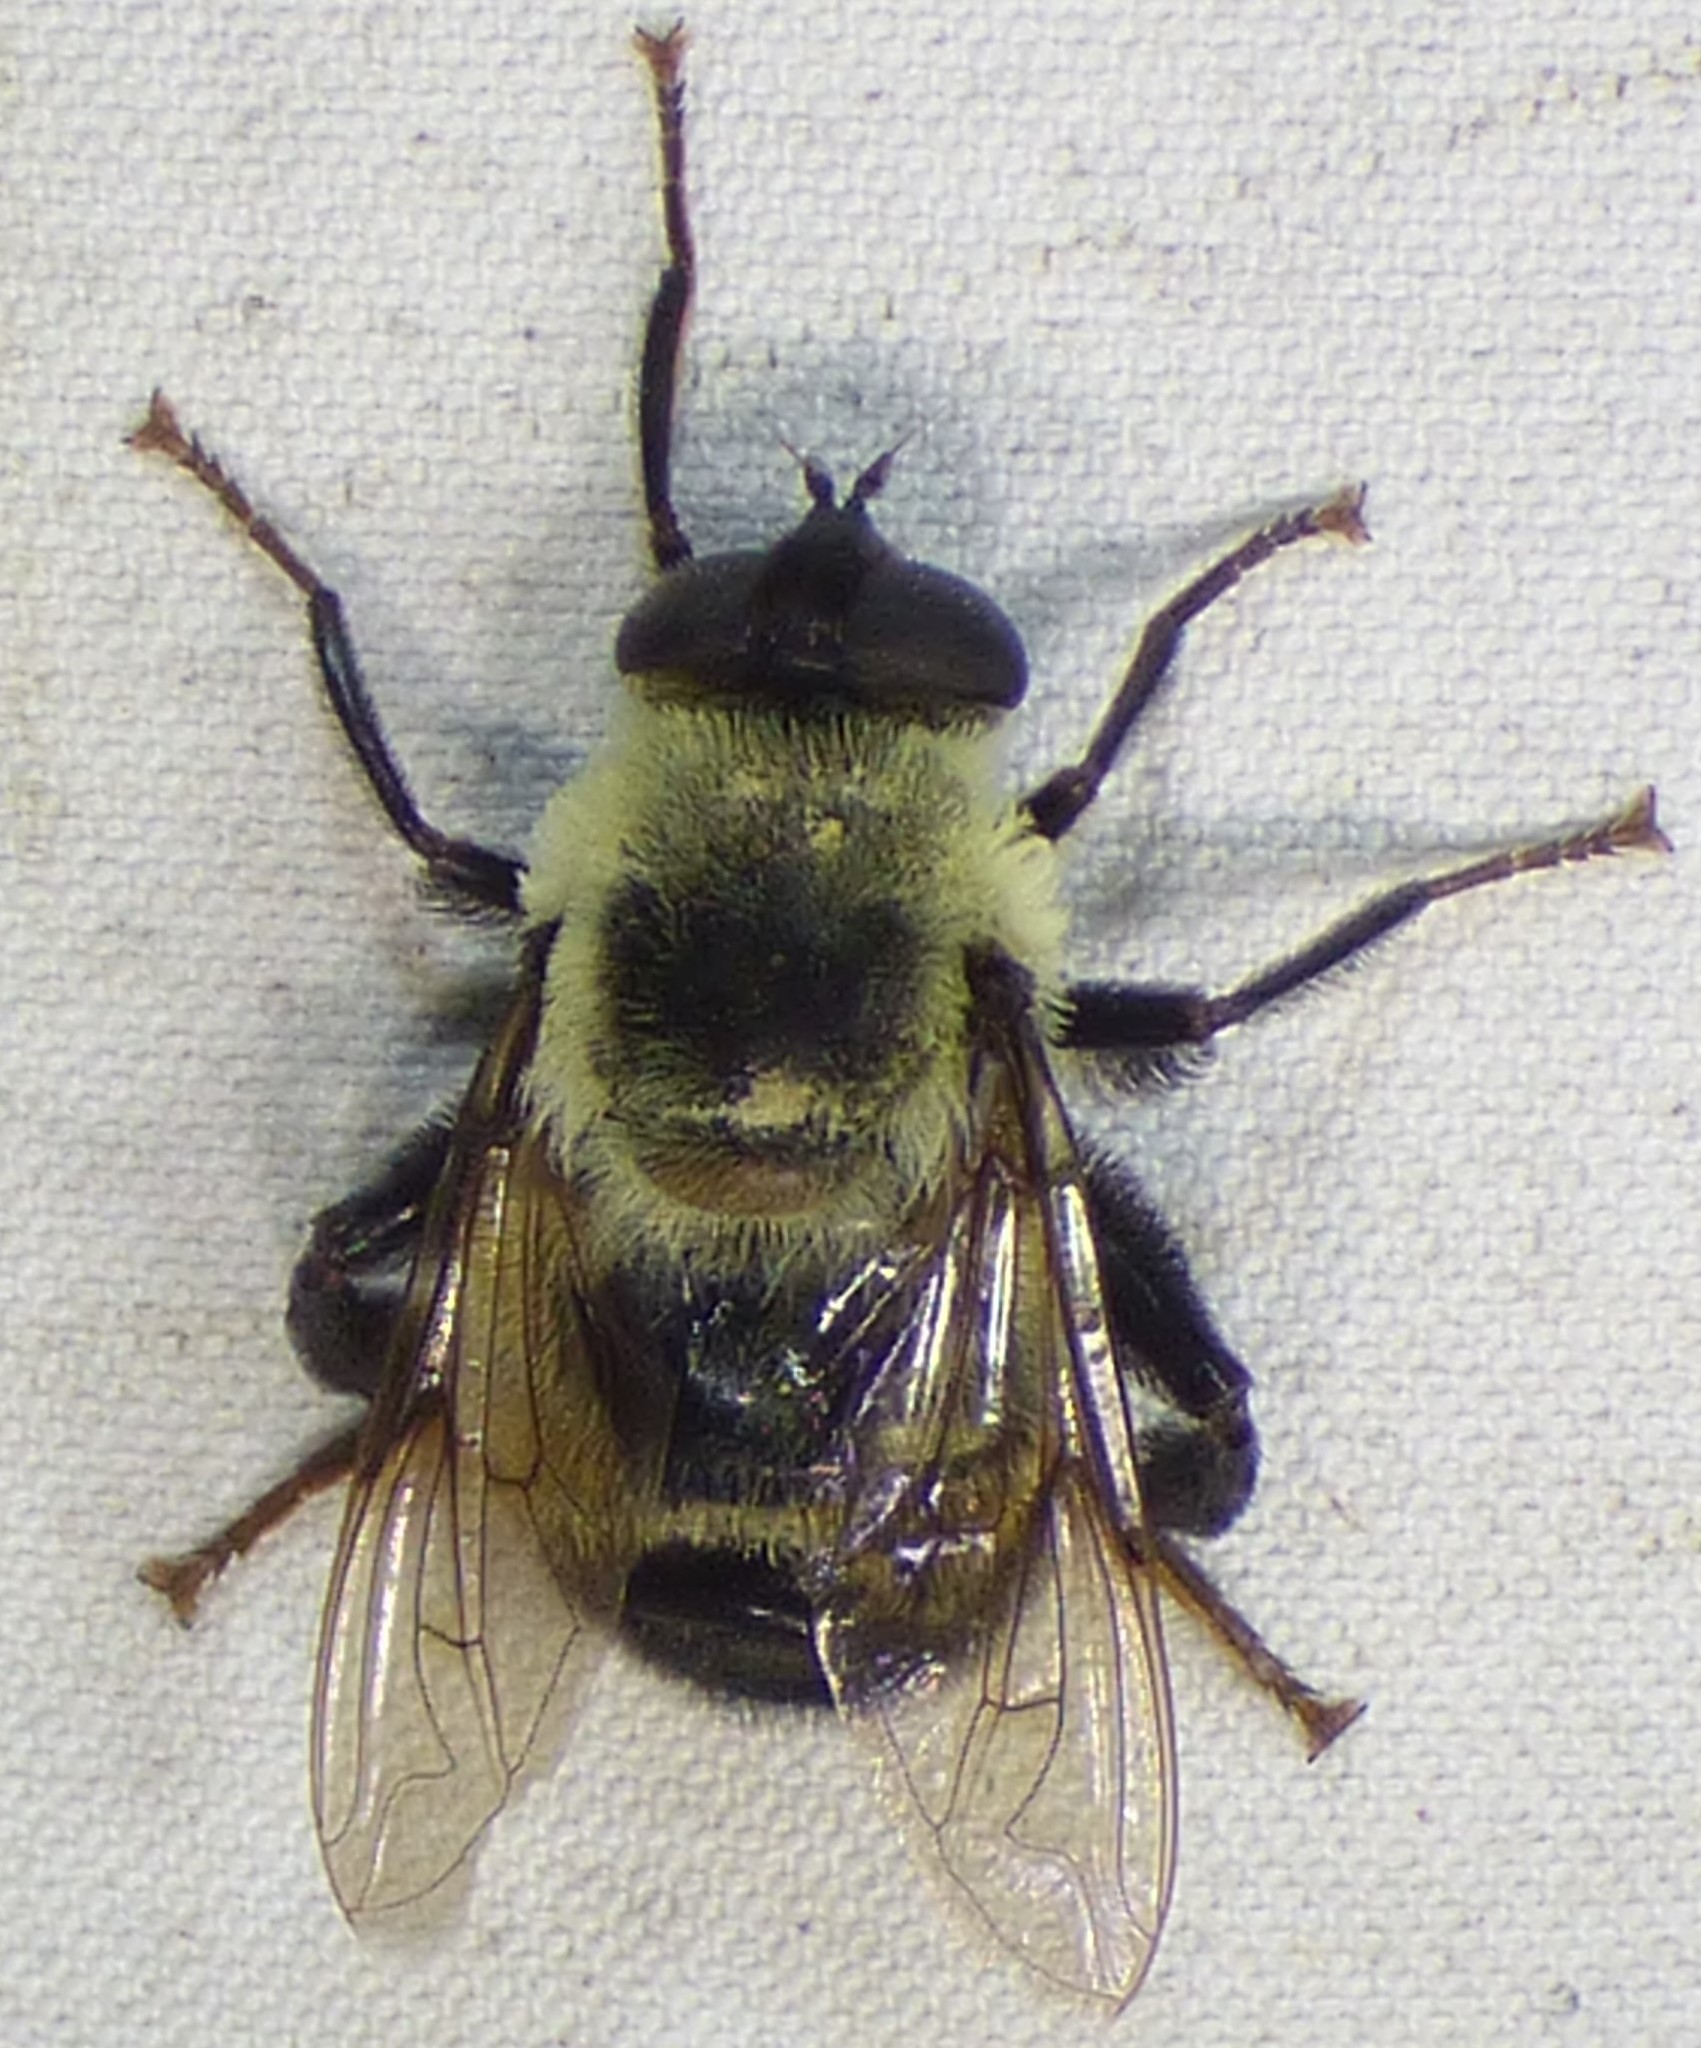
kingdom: Animalia
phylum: Arthropoda
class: Insecta
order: Diptera
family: Syrphidae
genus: Imatisma
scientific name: Imatisma posticata
